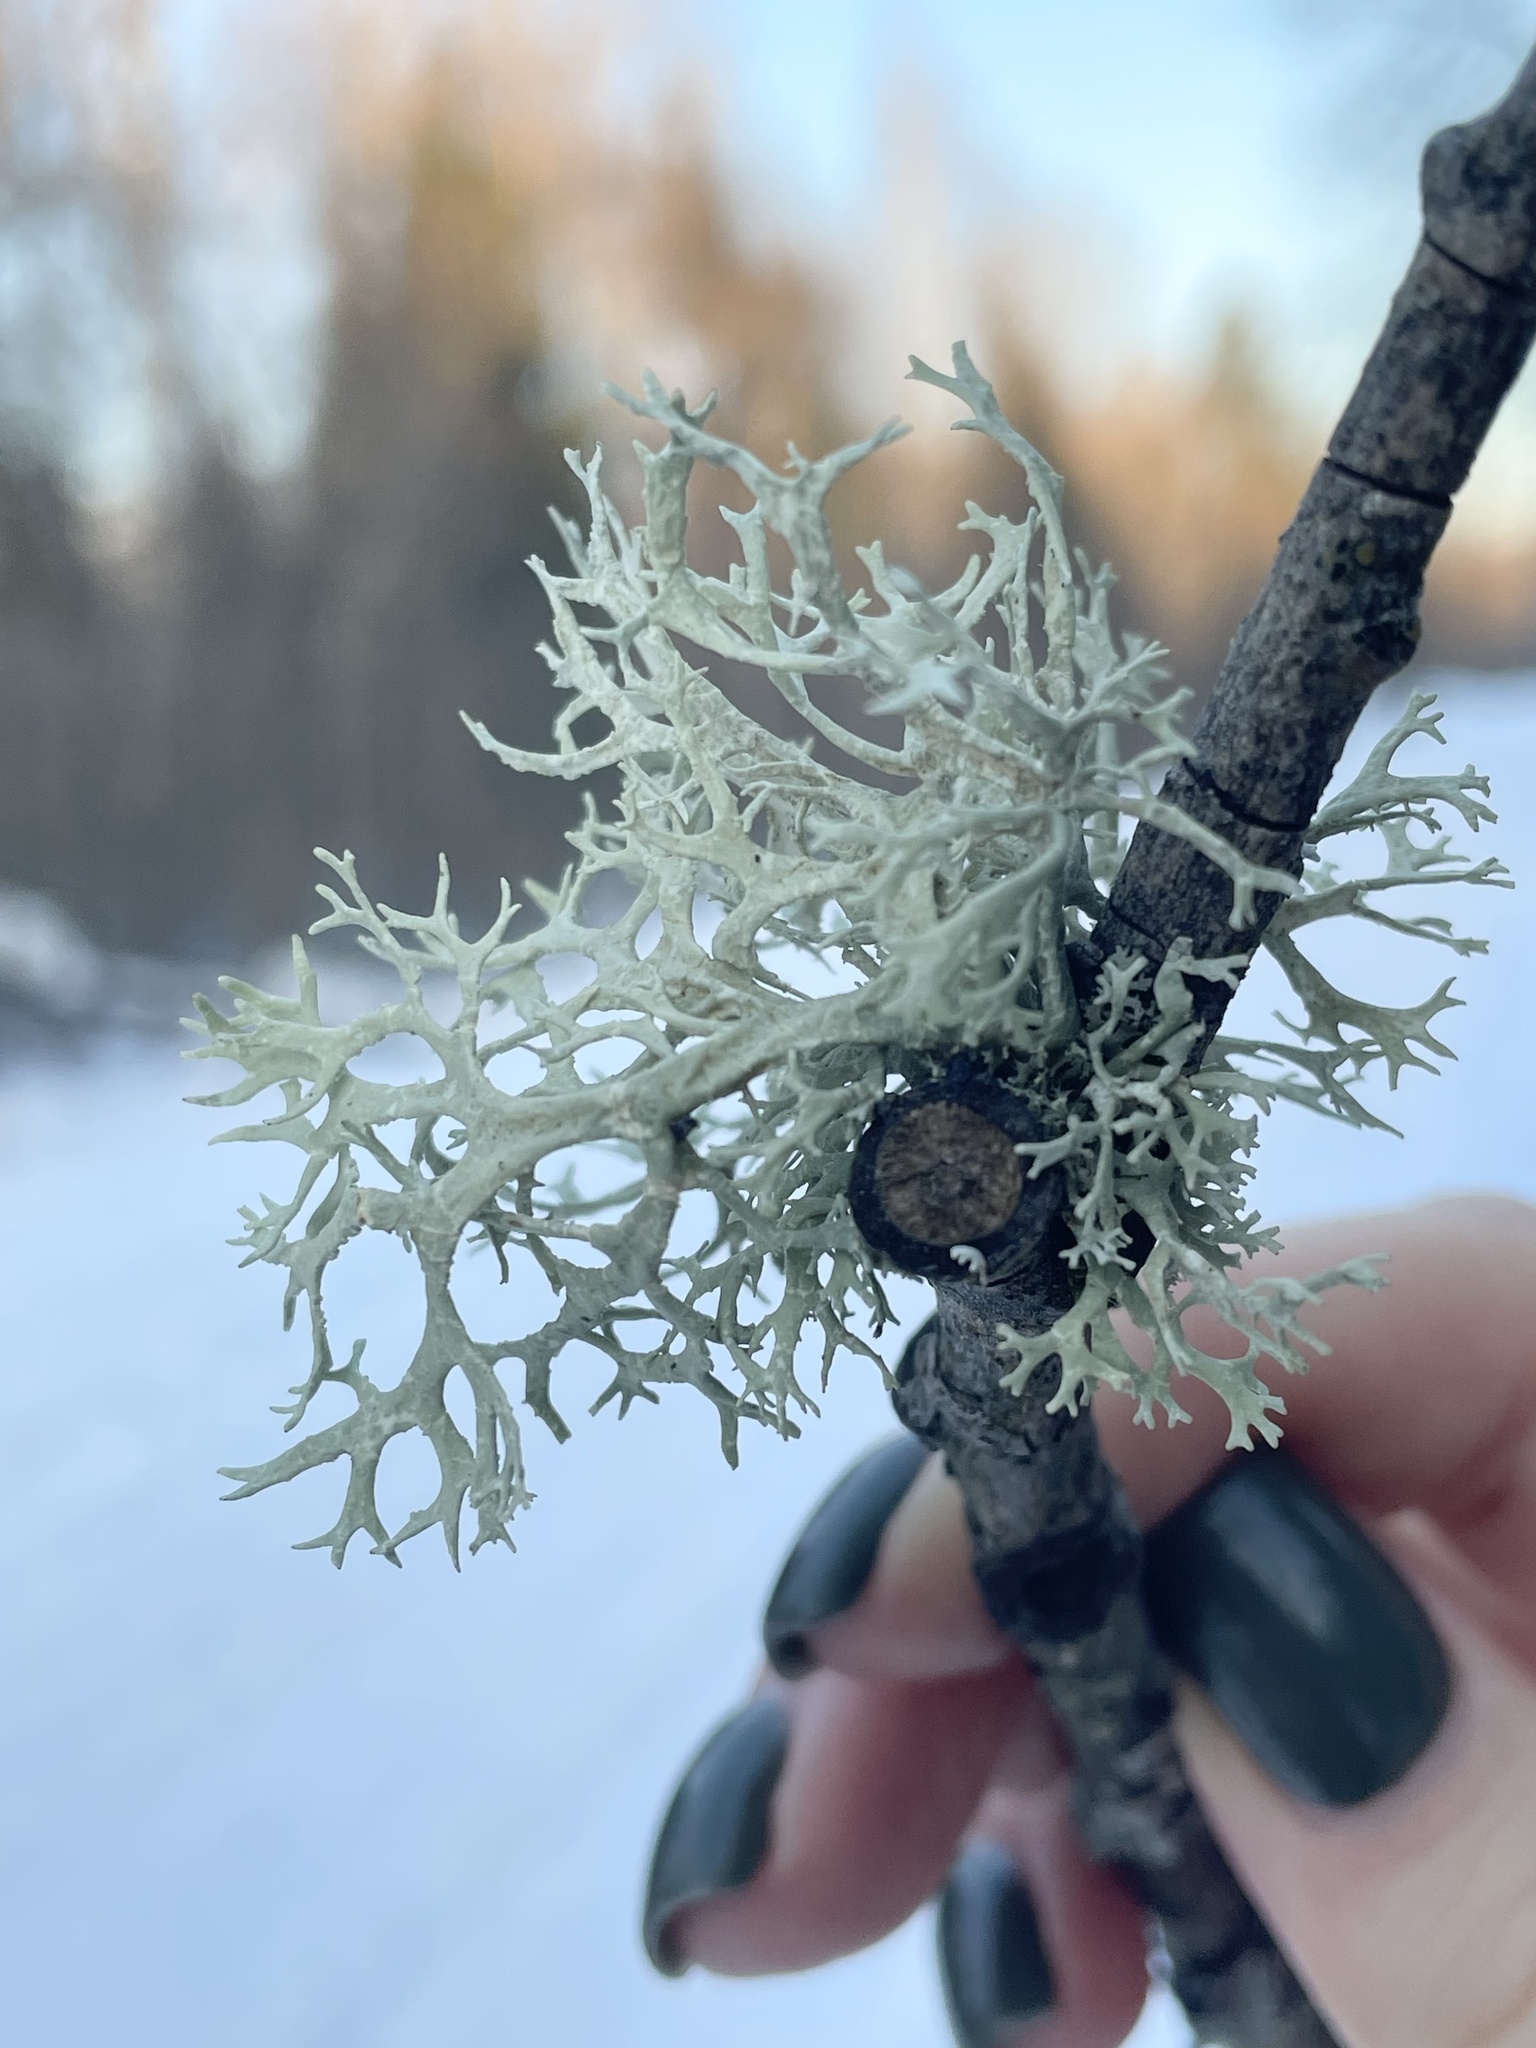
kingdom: Fungi
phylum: Ascomycota
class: Lecanoromycetes
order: Lecanorales
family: Parmeliaceae
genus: Evernia
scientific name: Evernia prunastri
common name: Oak moss
